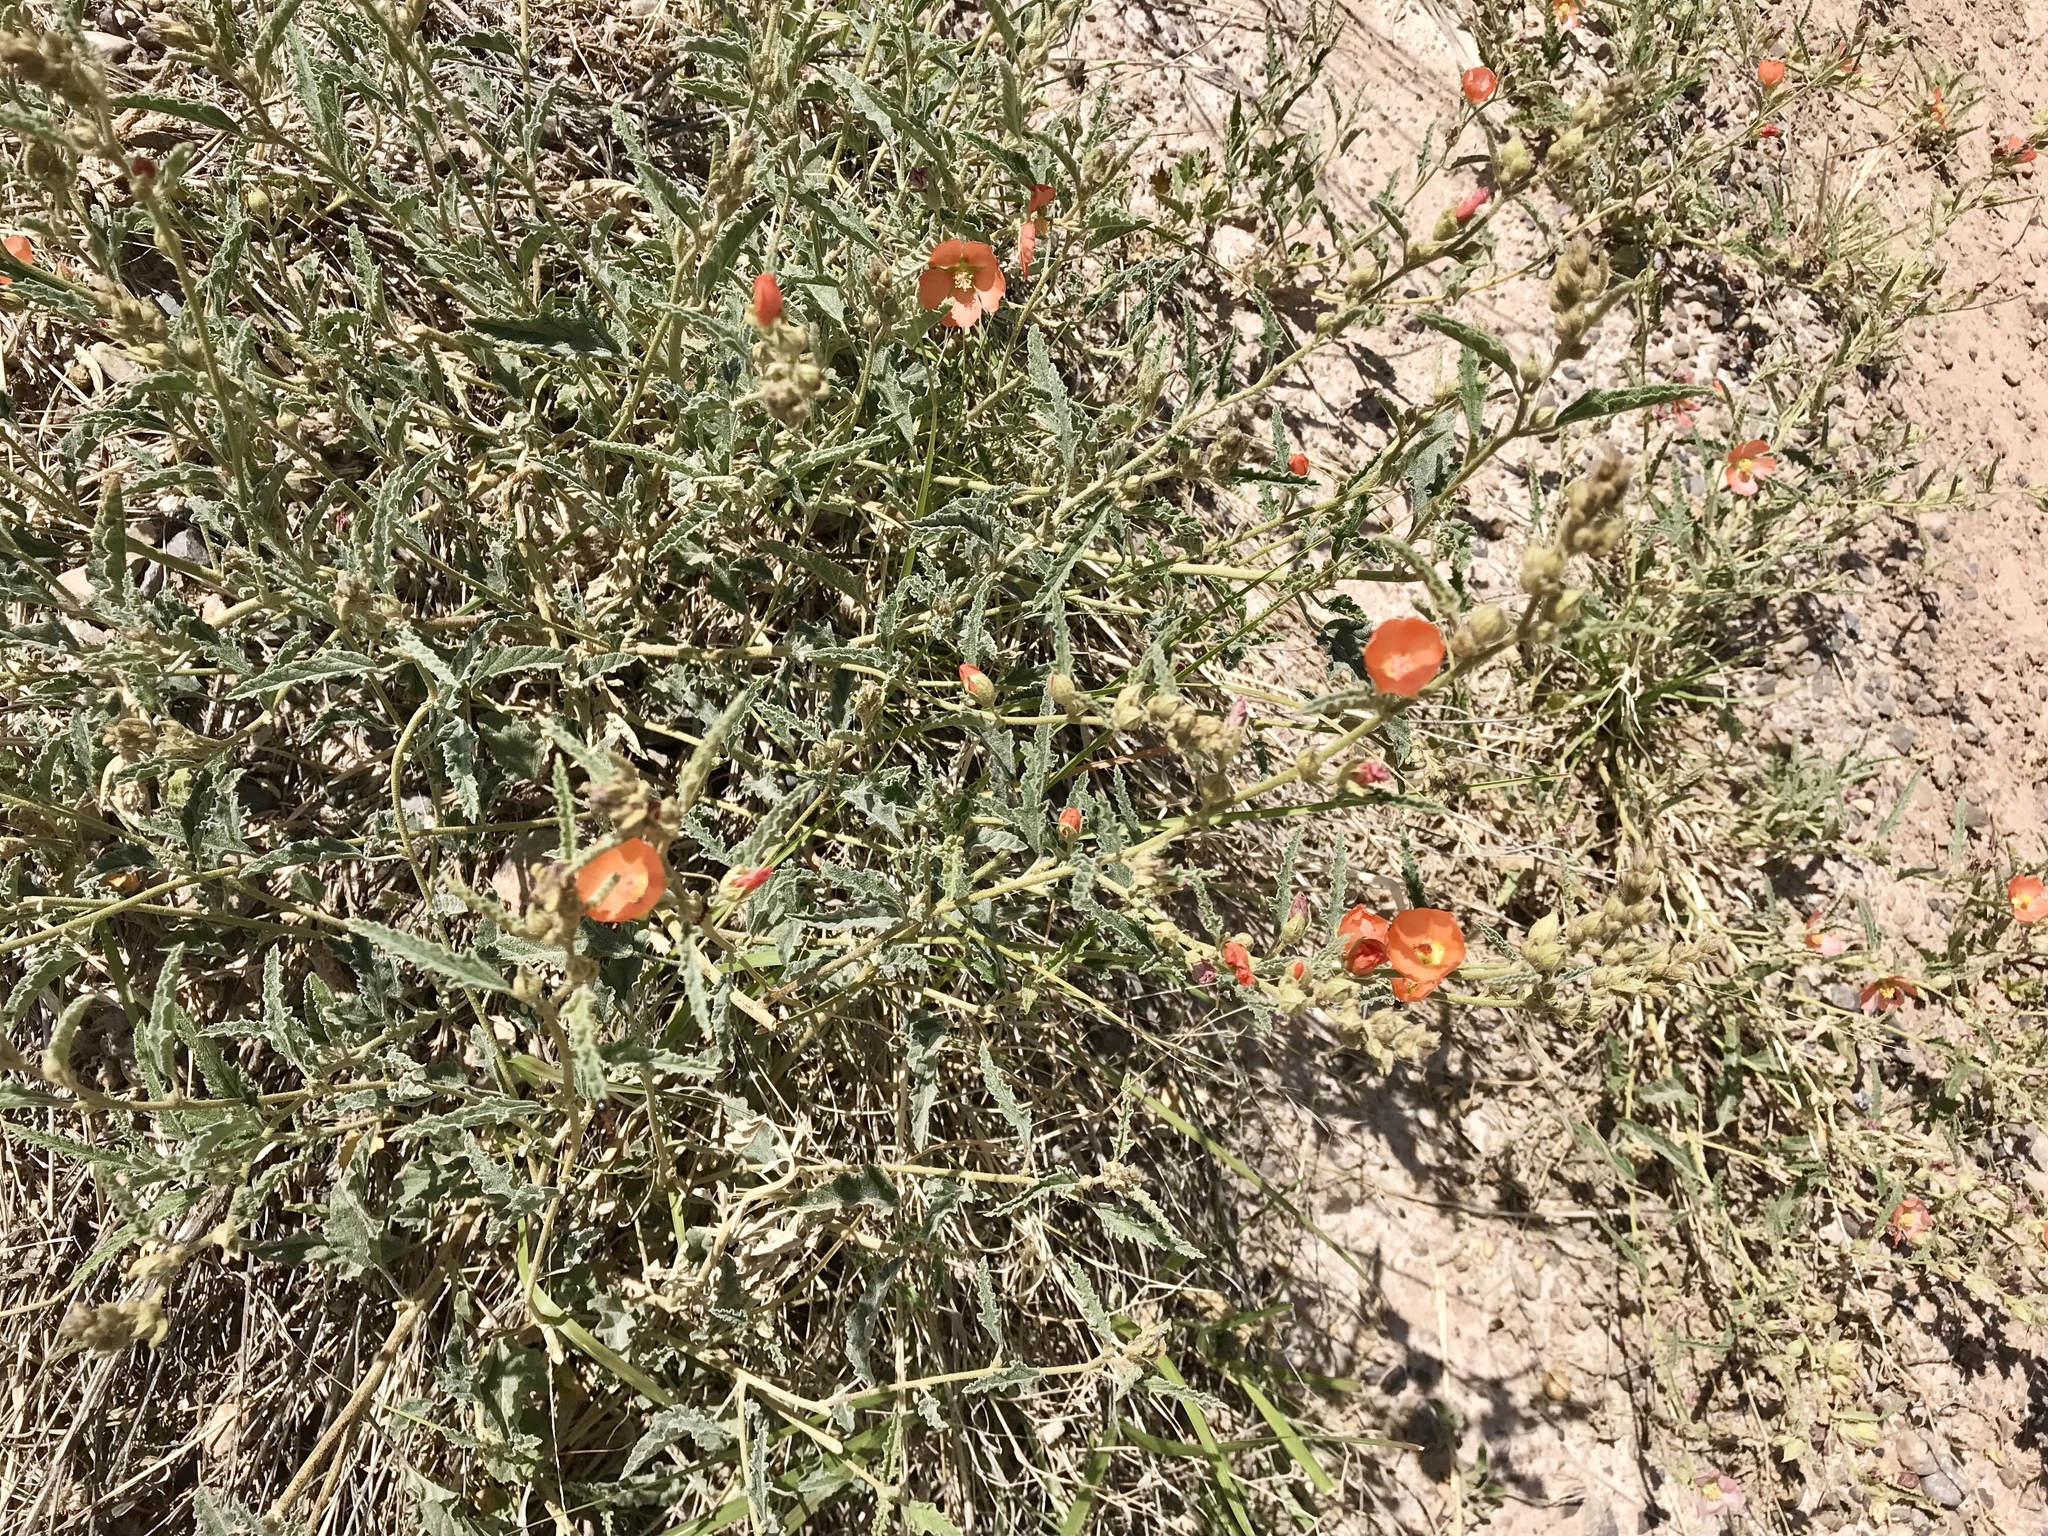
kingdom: Plantae
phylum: Tracheophyta
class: Magnoliopsida
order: Malvales
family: Malvaceae
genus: Sphaeralcea
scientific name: Sphaeralcea hastulata
